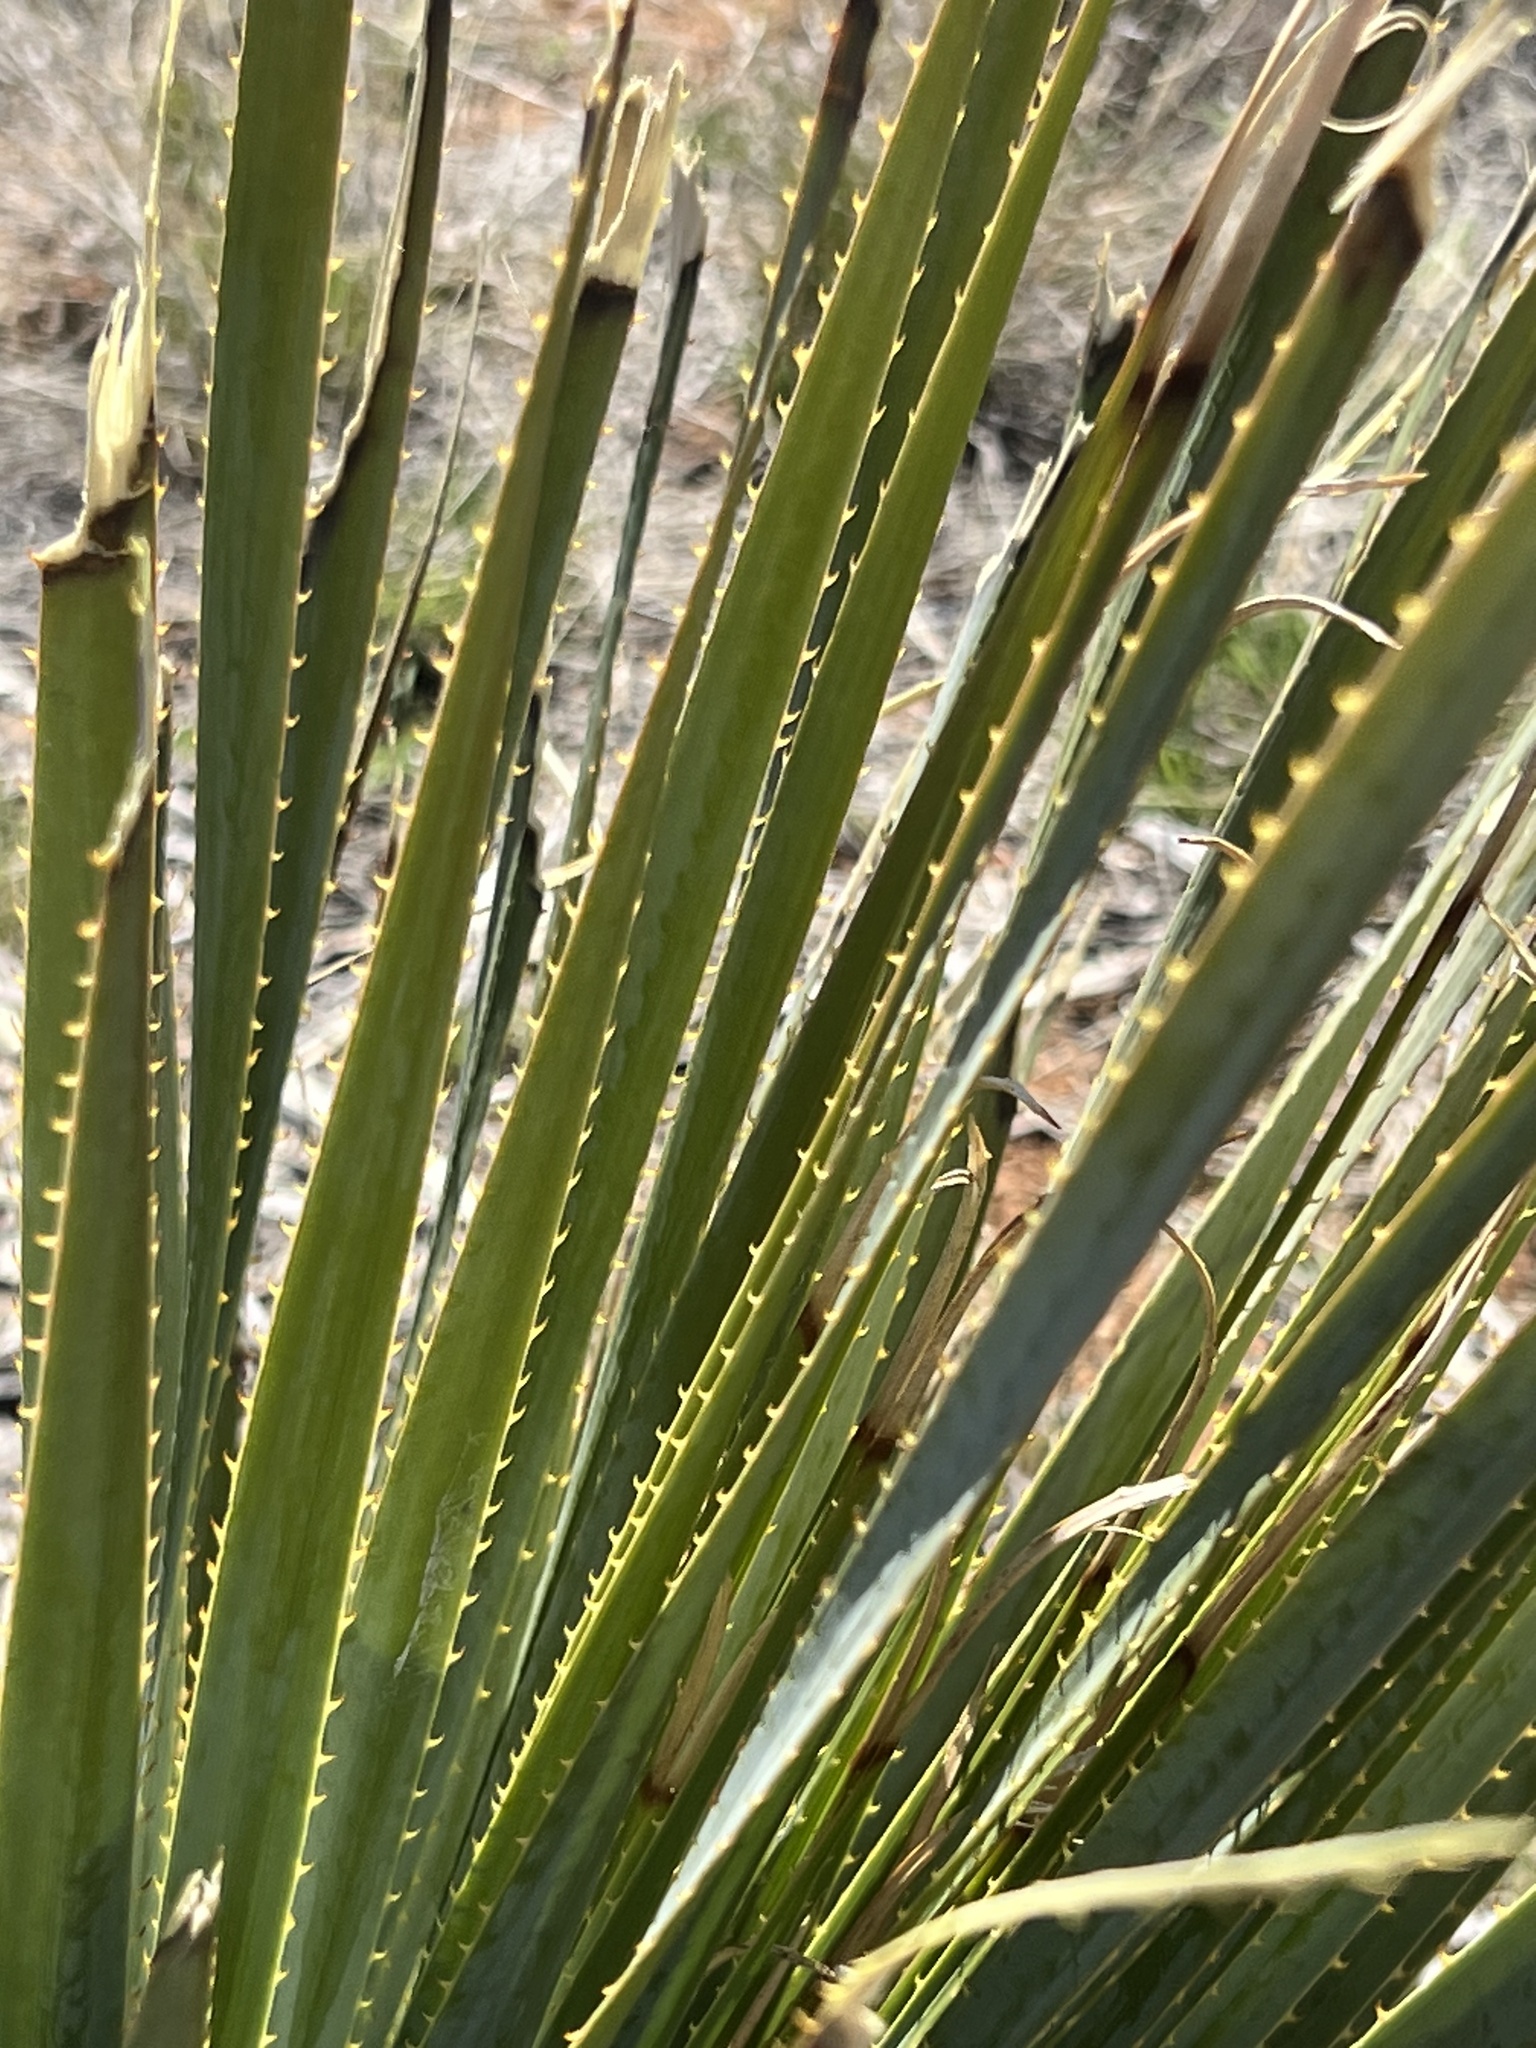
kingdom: Plantae
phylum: Tracheophyta
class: Liliopsida
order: Asparagales
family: Asparagaceae
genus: Dasylirion
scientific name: Dasylirion wheeleri
